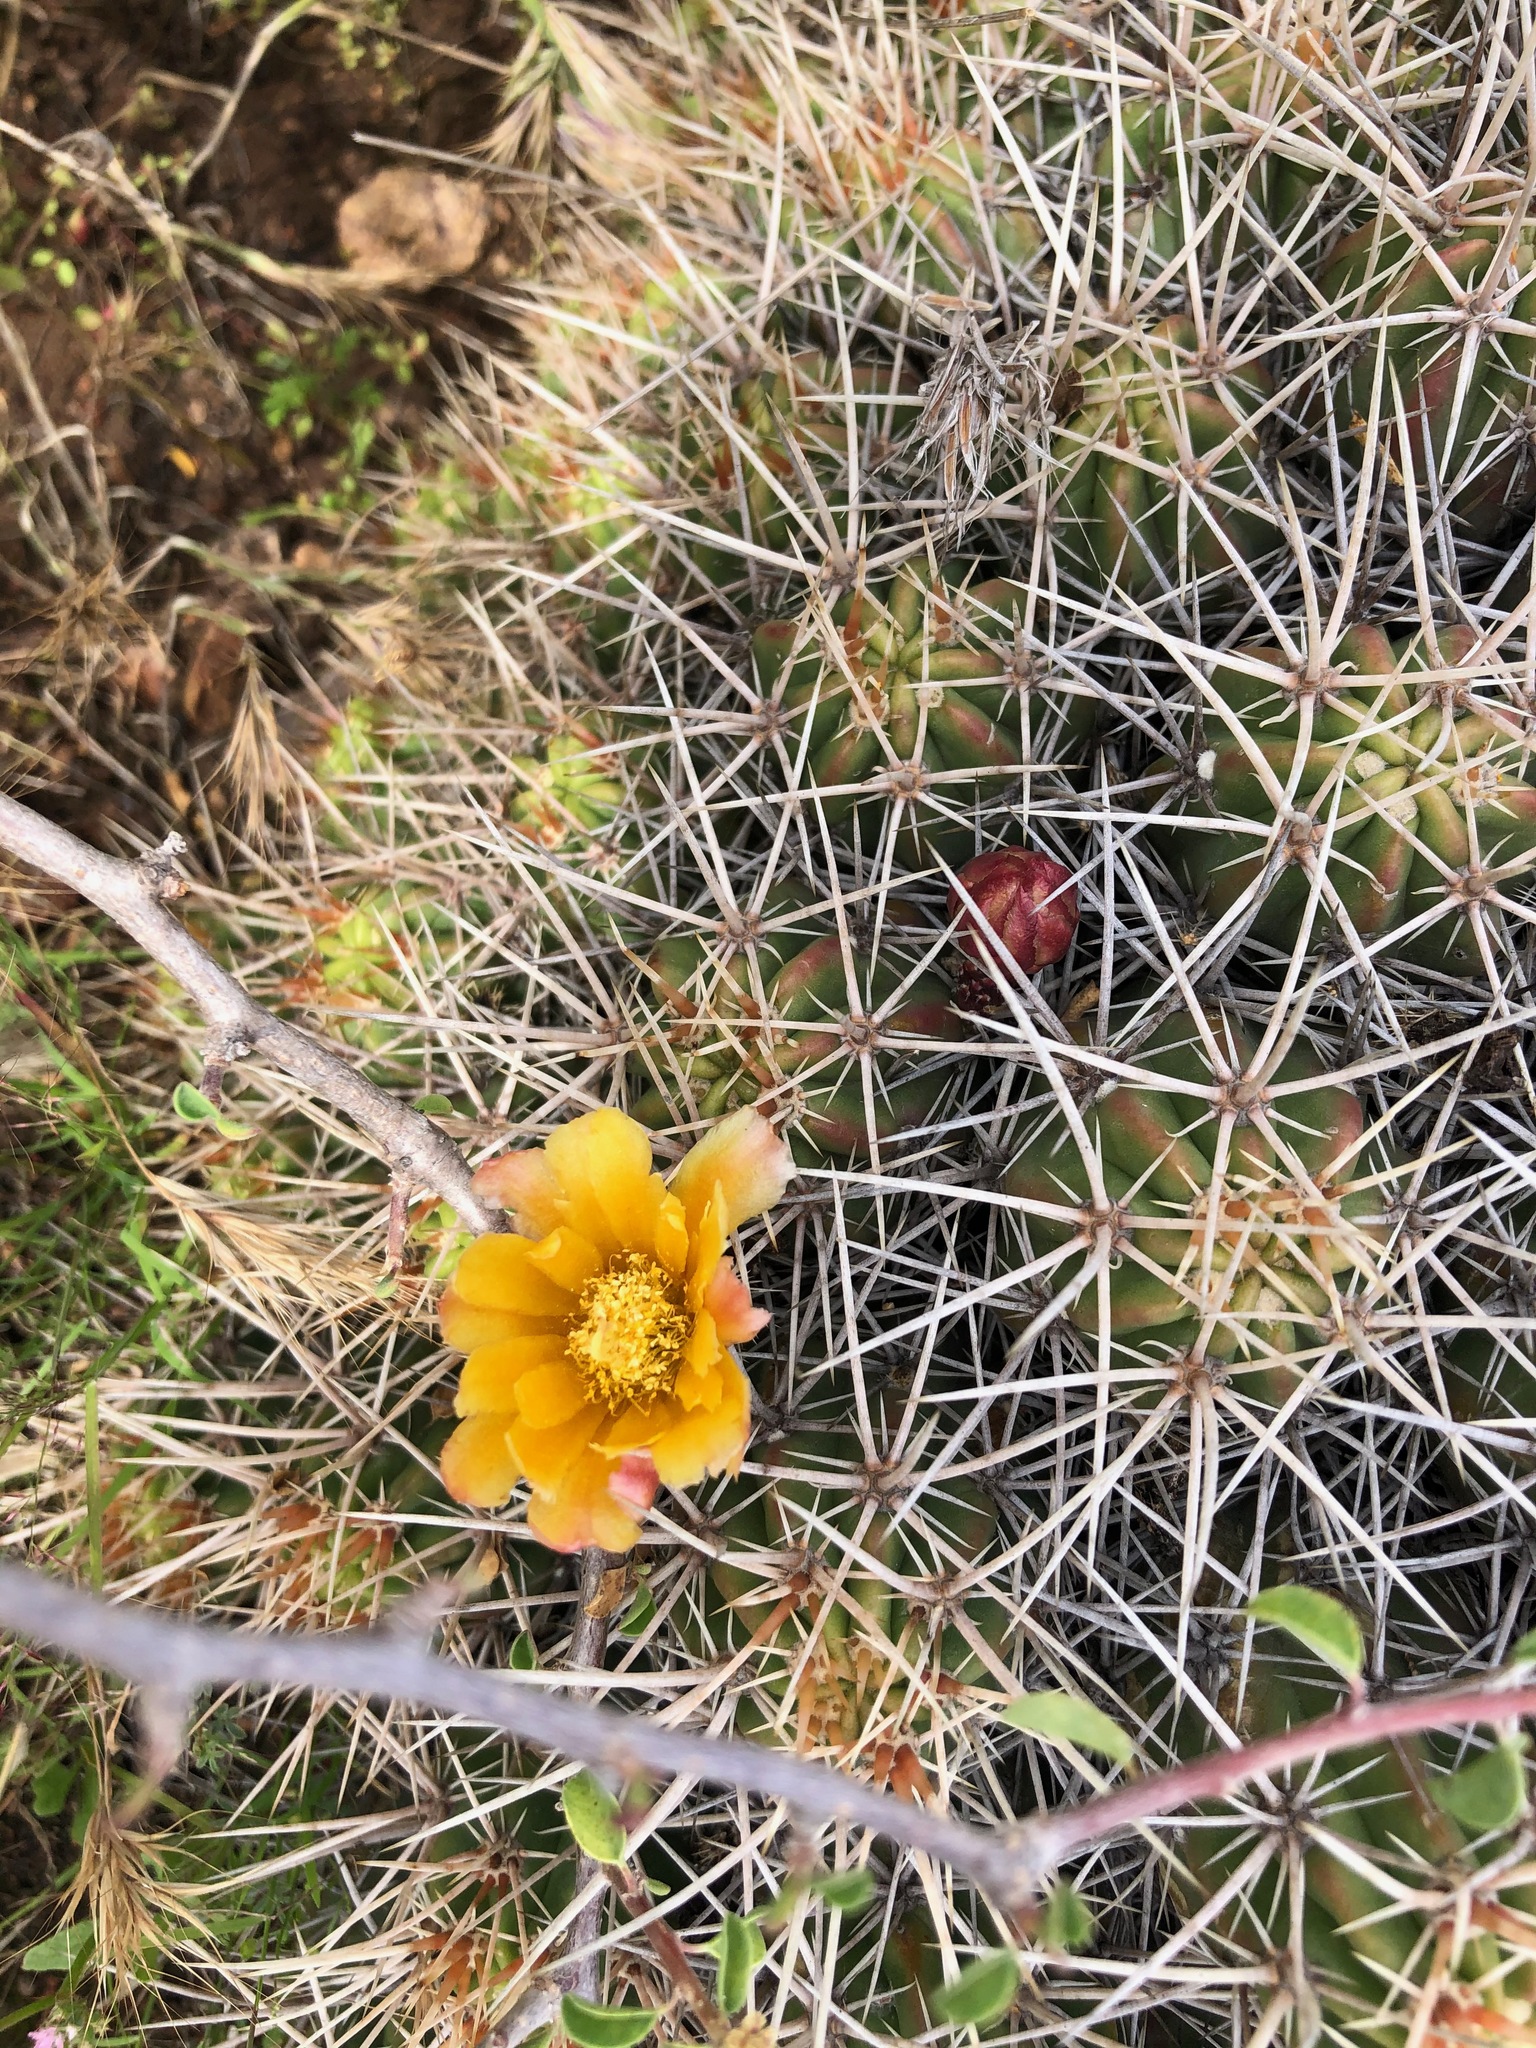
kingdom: Plantae
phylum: Tracheophyta
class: Magnoliopsida
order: Caryophyllales
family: Cactaceae
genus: Echinocereus
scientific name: Echinocereus maritimus
